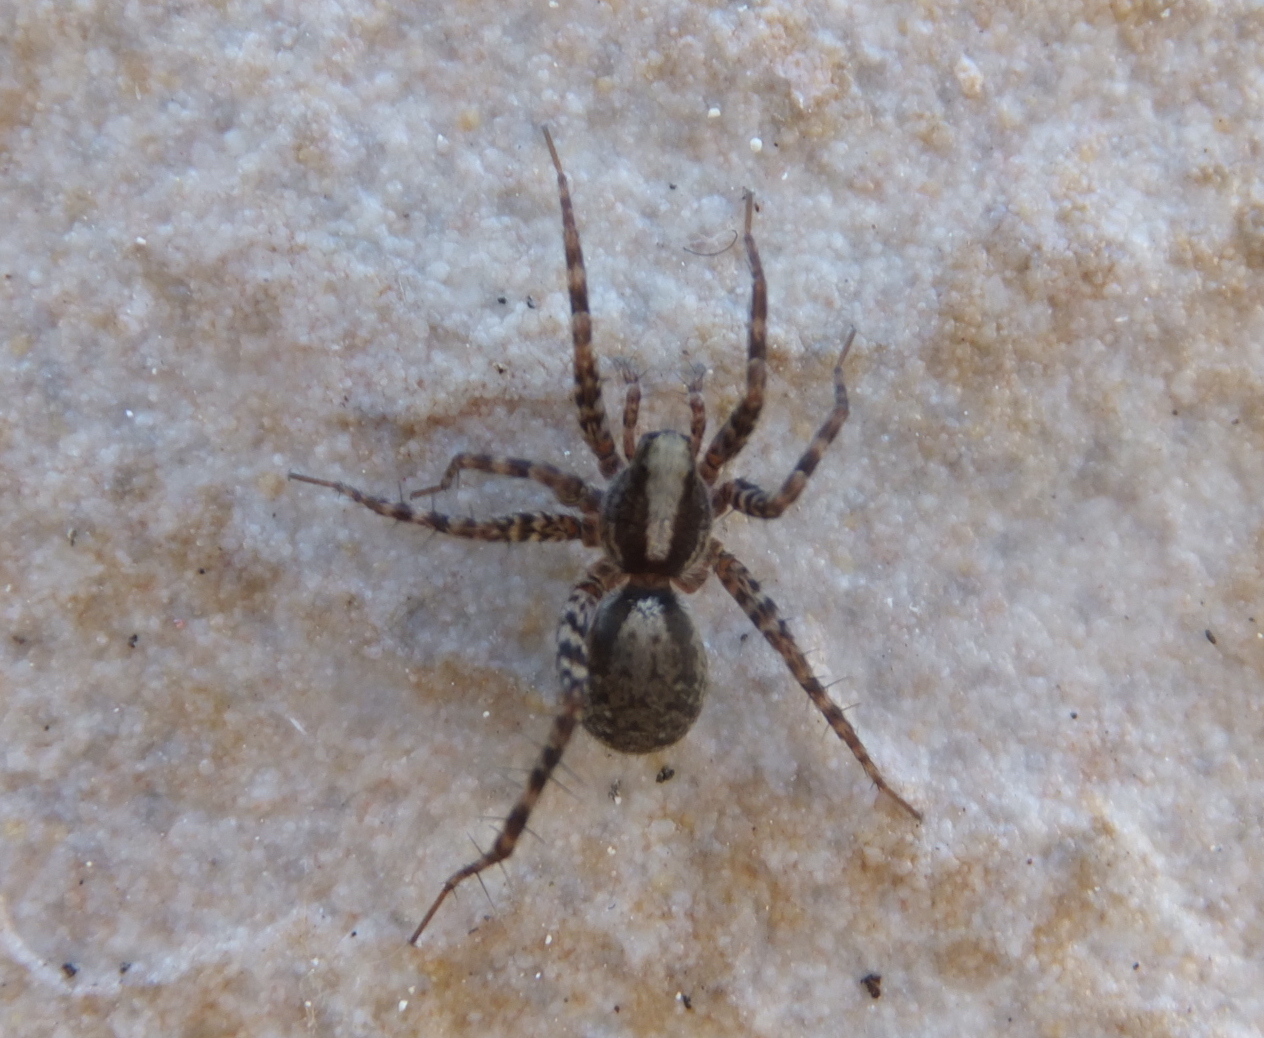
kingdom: Animalia
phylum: Arthropoda
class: Arachnida
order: Araneae
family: Lycosidae
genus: Pardosa
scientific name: Pardosa
